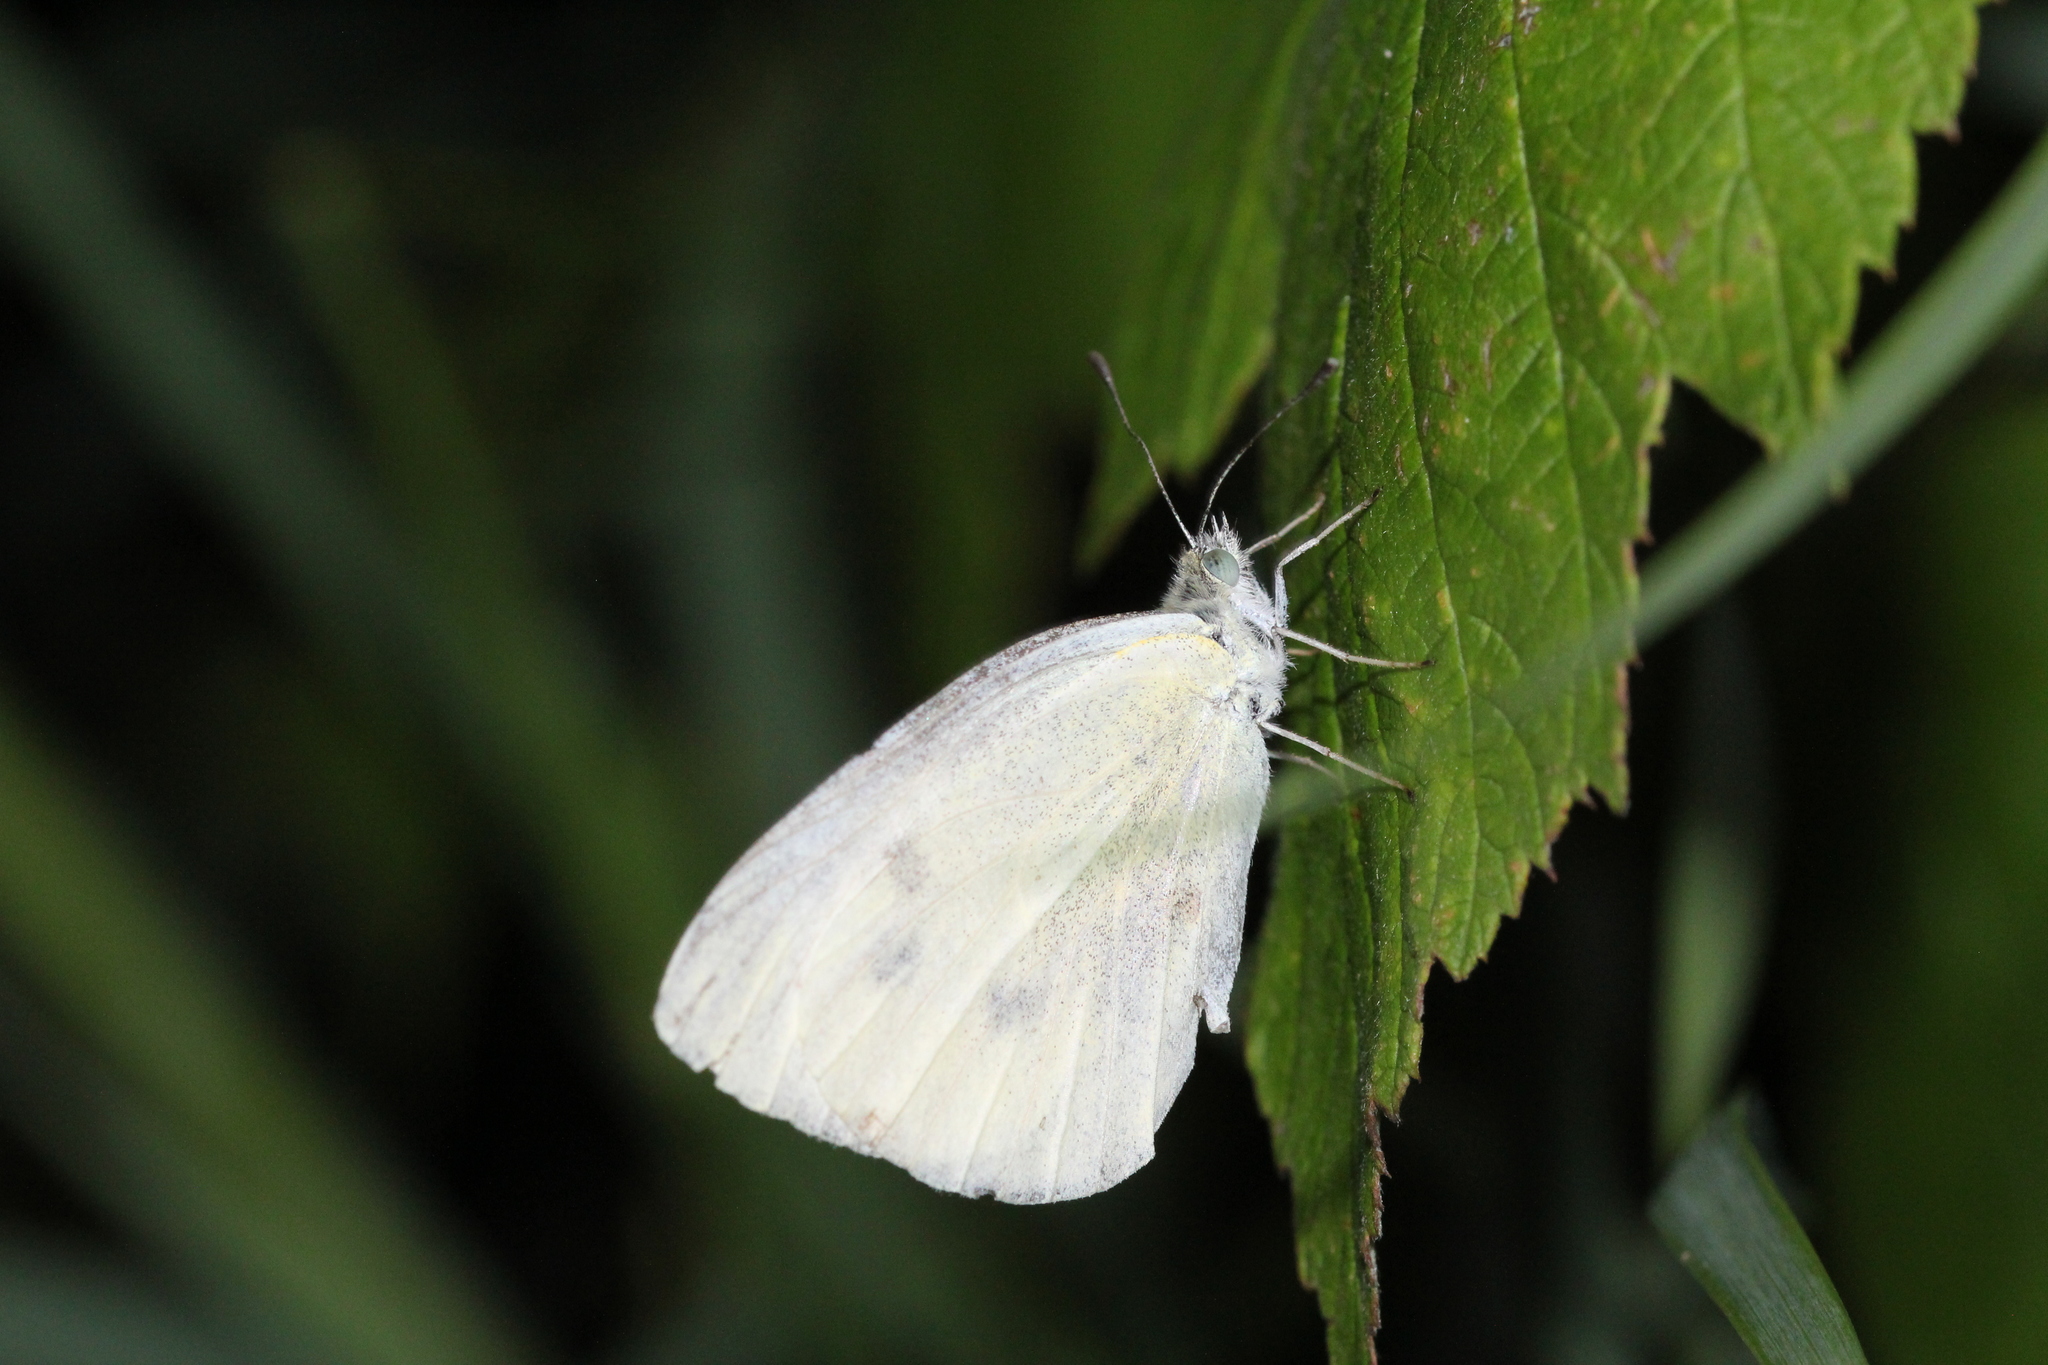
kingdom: Animalia
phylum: Arthropoda
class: Insecta
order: Lepidoptera
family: Pieridae
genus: Pieris
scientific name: Pieris rapae
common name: Small white
